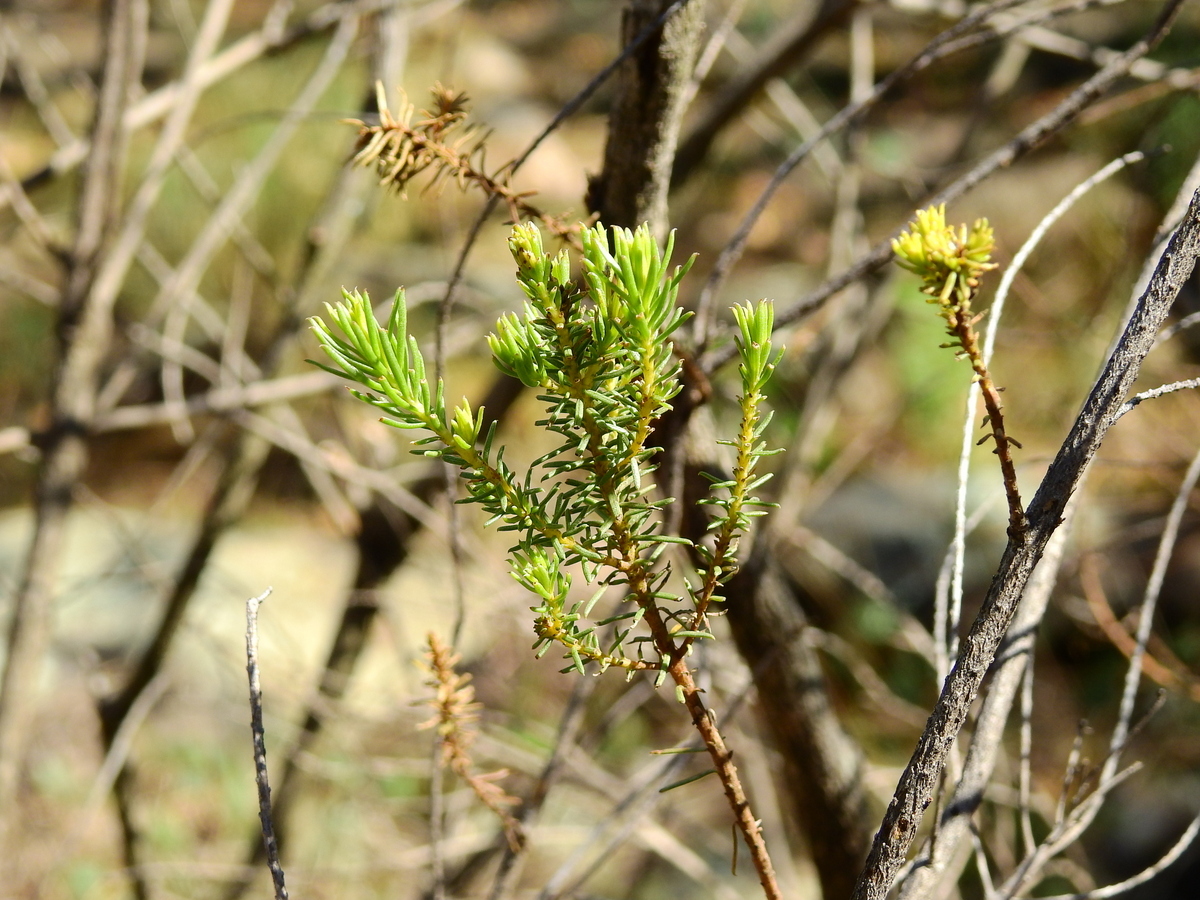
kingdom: Plantae
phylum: Tracheophyta
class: Magnoliopsida
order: Asterales
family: Asteraceae
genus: Baccharis
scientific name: Baccharis aliena
